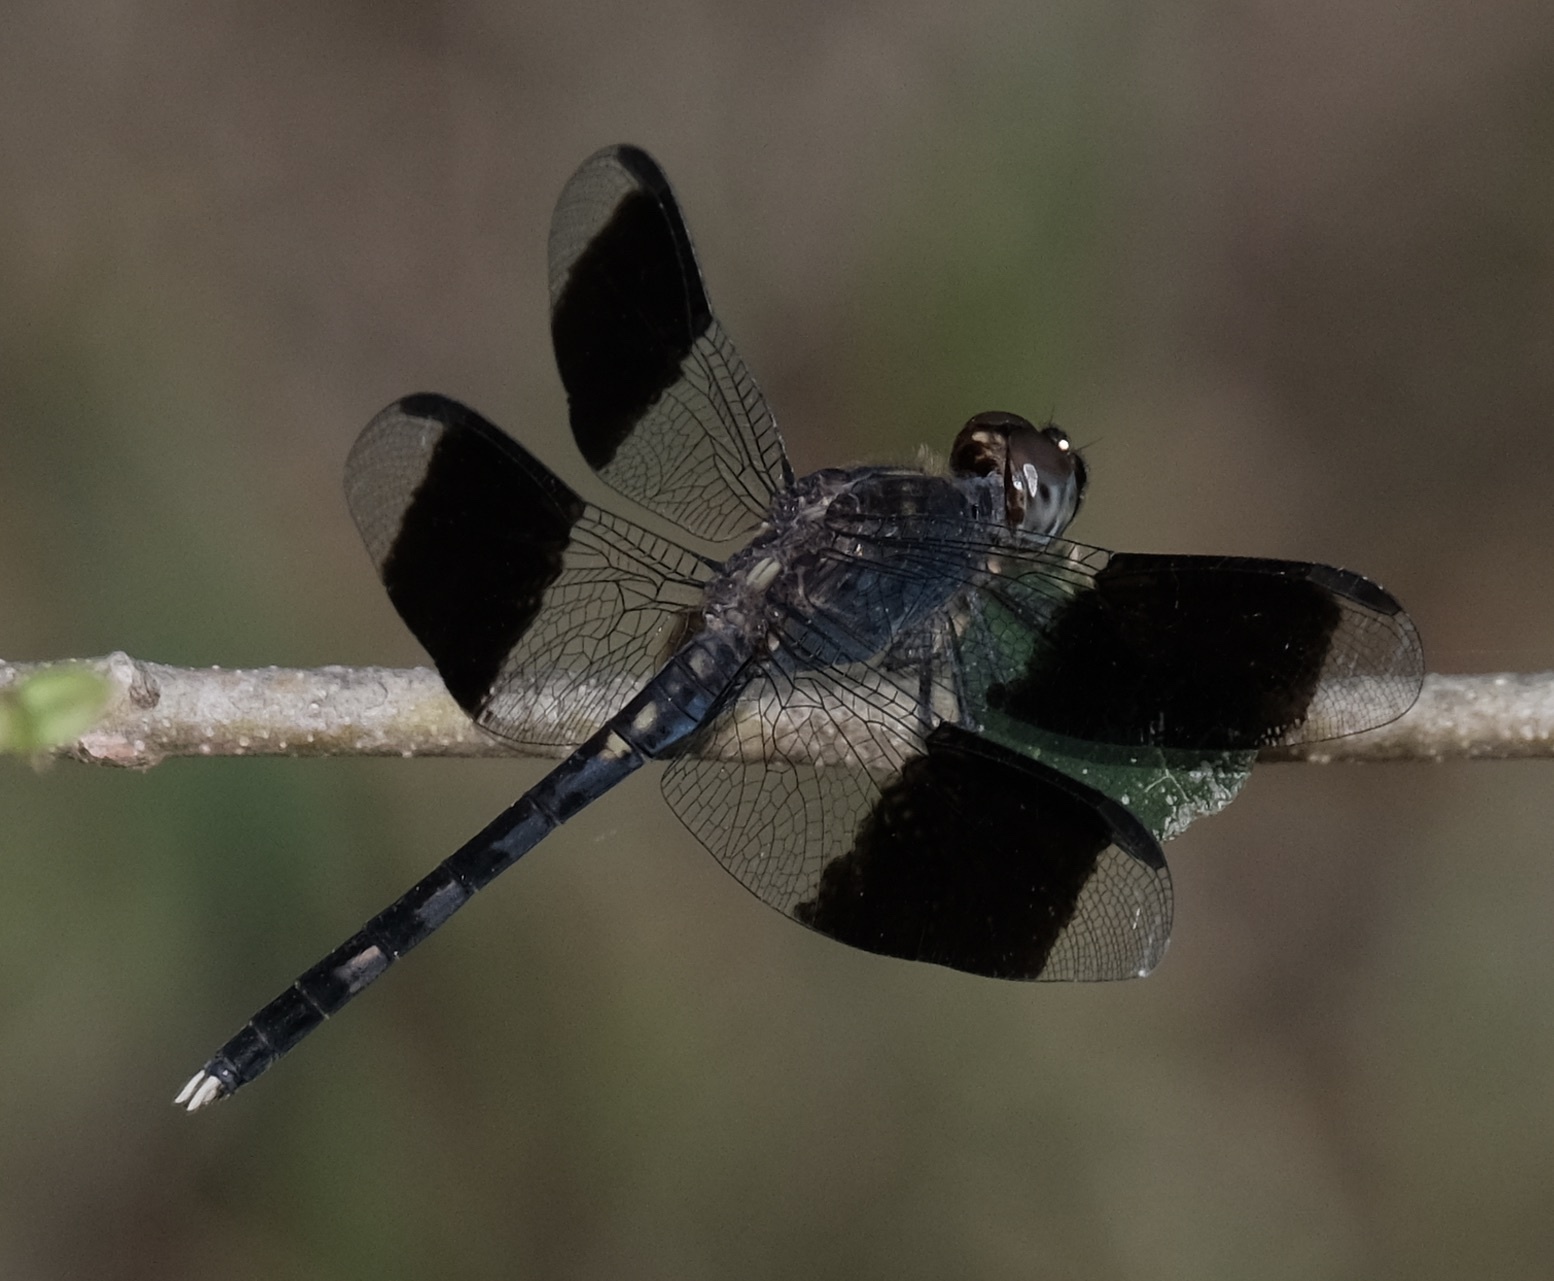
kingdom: Animalia
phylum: Arthropoda
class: Insecta
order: Odonata
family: Libellulidae
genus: Erythrodiplax
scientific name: Erythrodiplax umbrata
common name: Band-winged dragonlet
